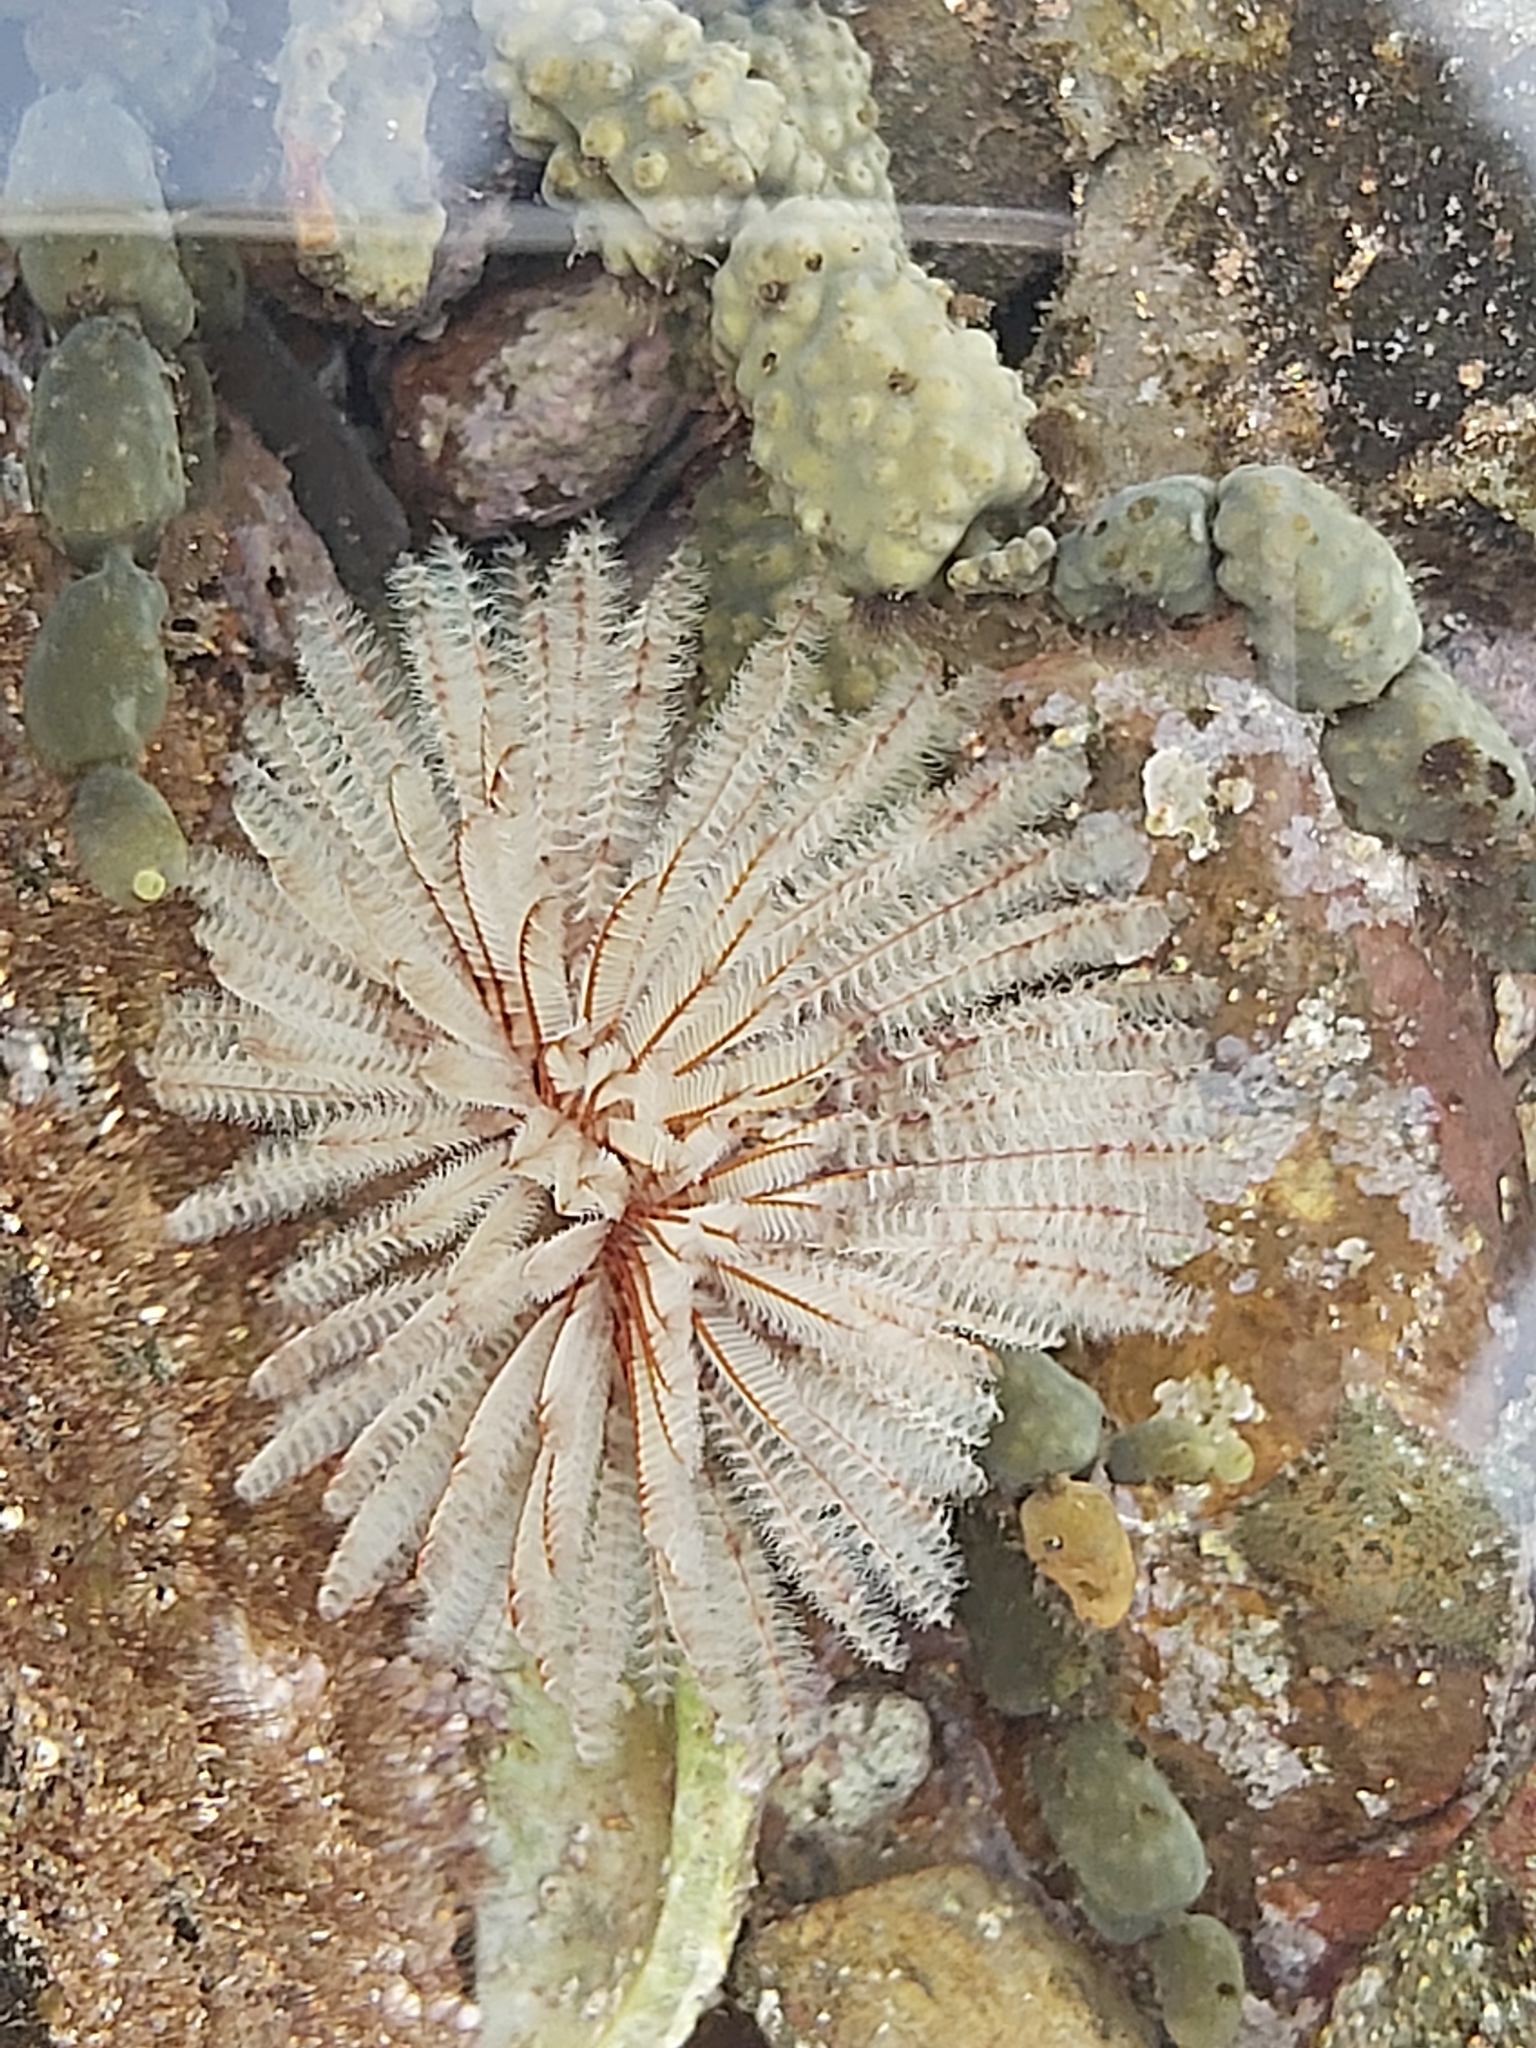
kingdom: Animalia
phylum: Annelida
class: Polychaeta
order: Sabellida
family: Sabellidae
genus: Sabellastarte
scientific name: Sabellastarte australiensis
